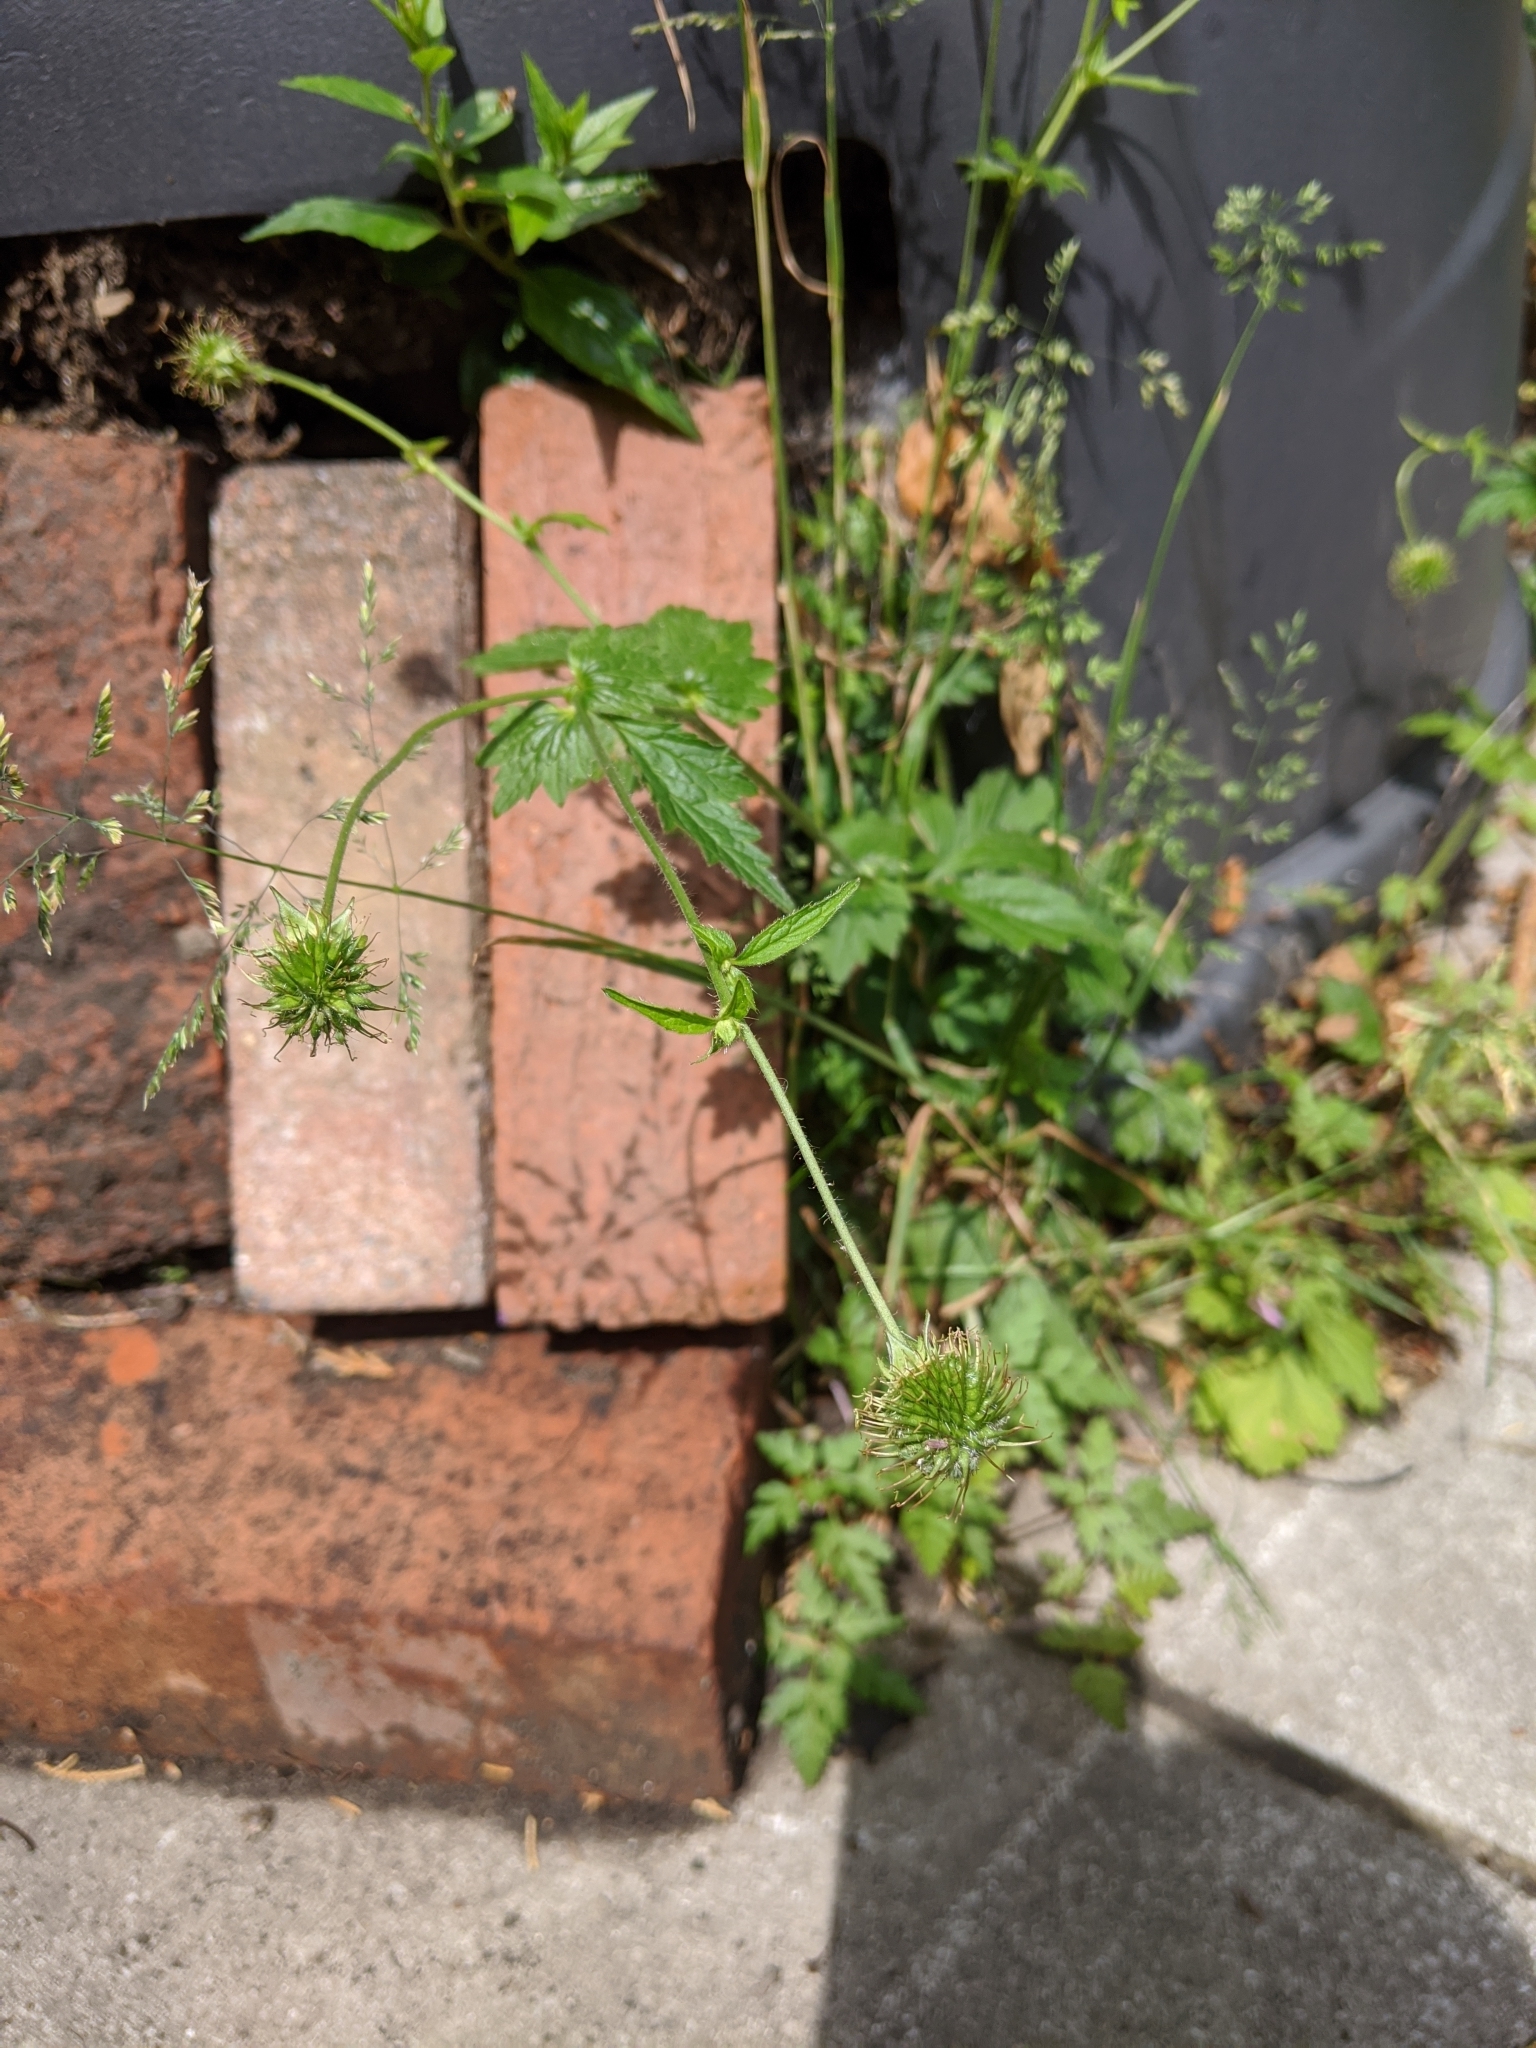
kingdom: Plantae
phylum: Tracheophyta
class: Magnoliopsida
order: Rosales
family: Rosaceae
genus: Geum
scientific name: Geum urbanum
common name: Wood avens
